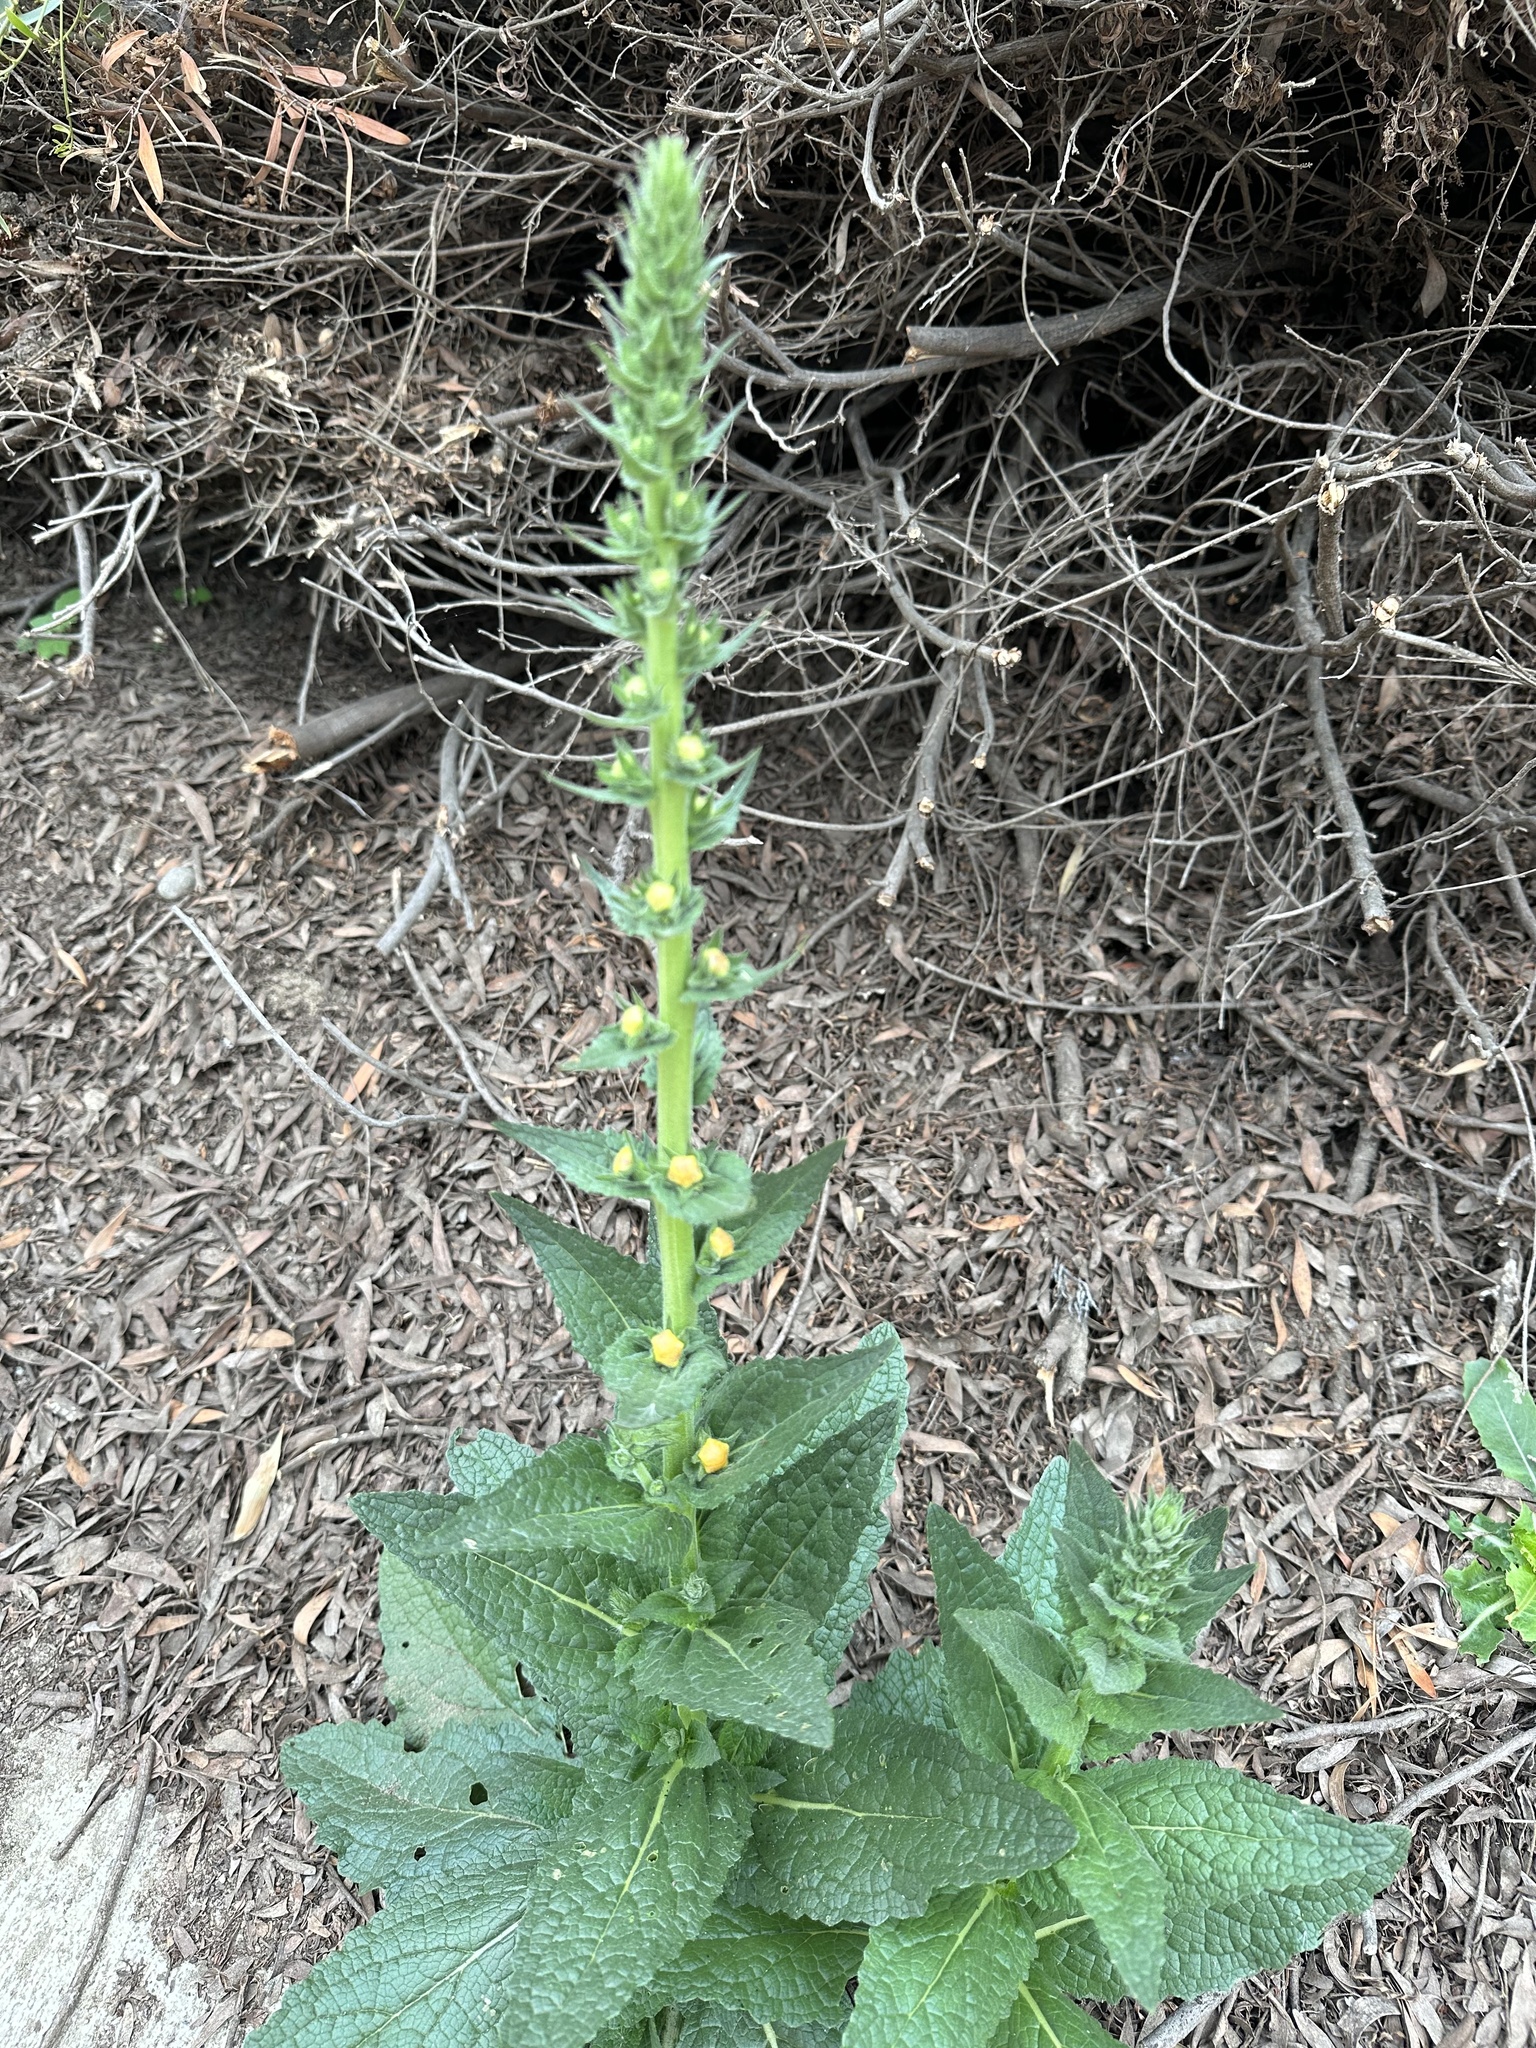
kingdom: Plantae
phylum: Tracheophyta
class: Magnoliopsida
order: Lamiales
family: Scrophulariaceae
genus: Verbascum
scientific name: Verbascum virgatum
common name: Twiggy mullein
